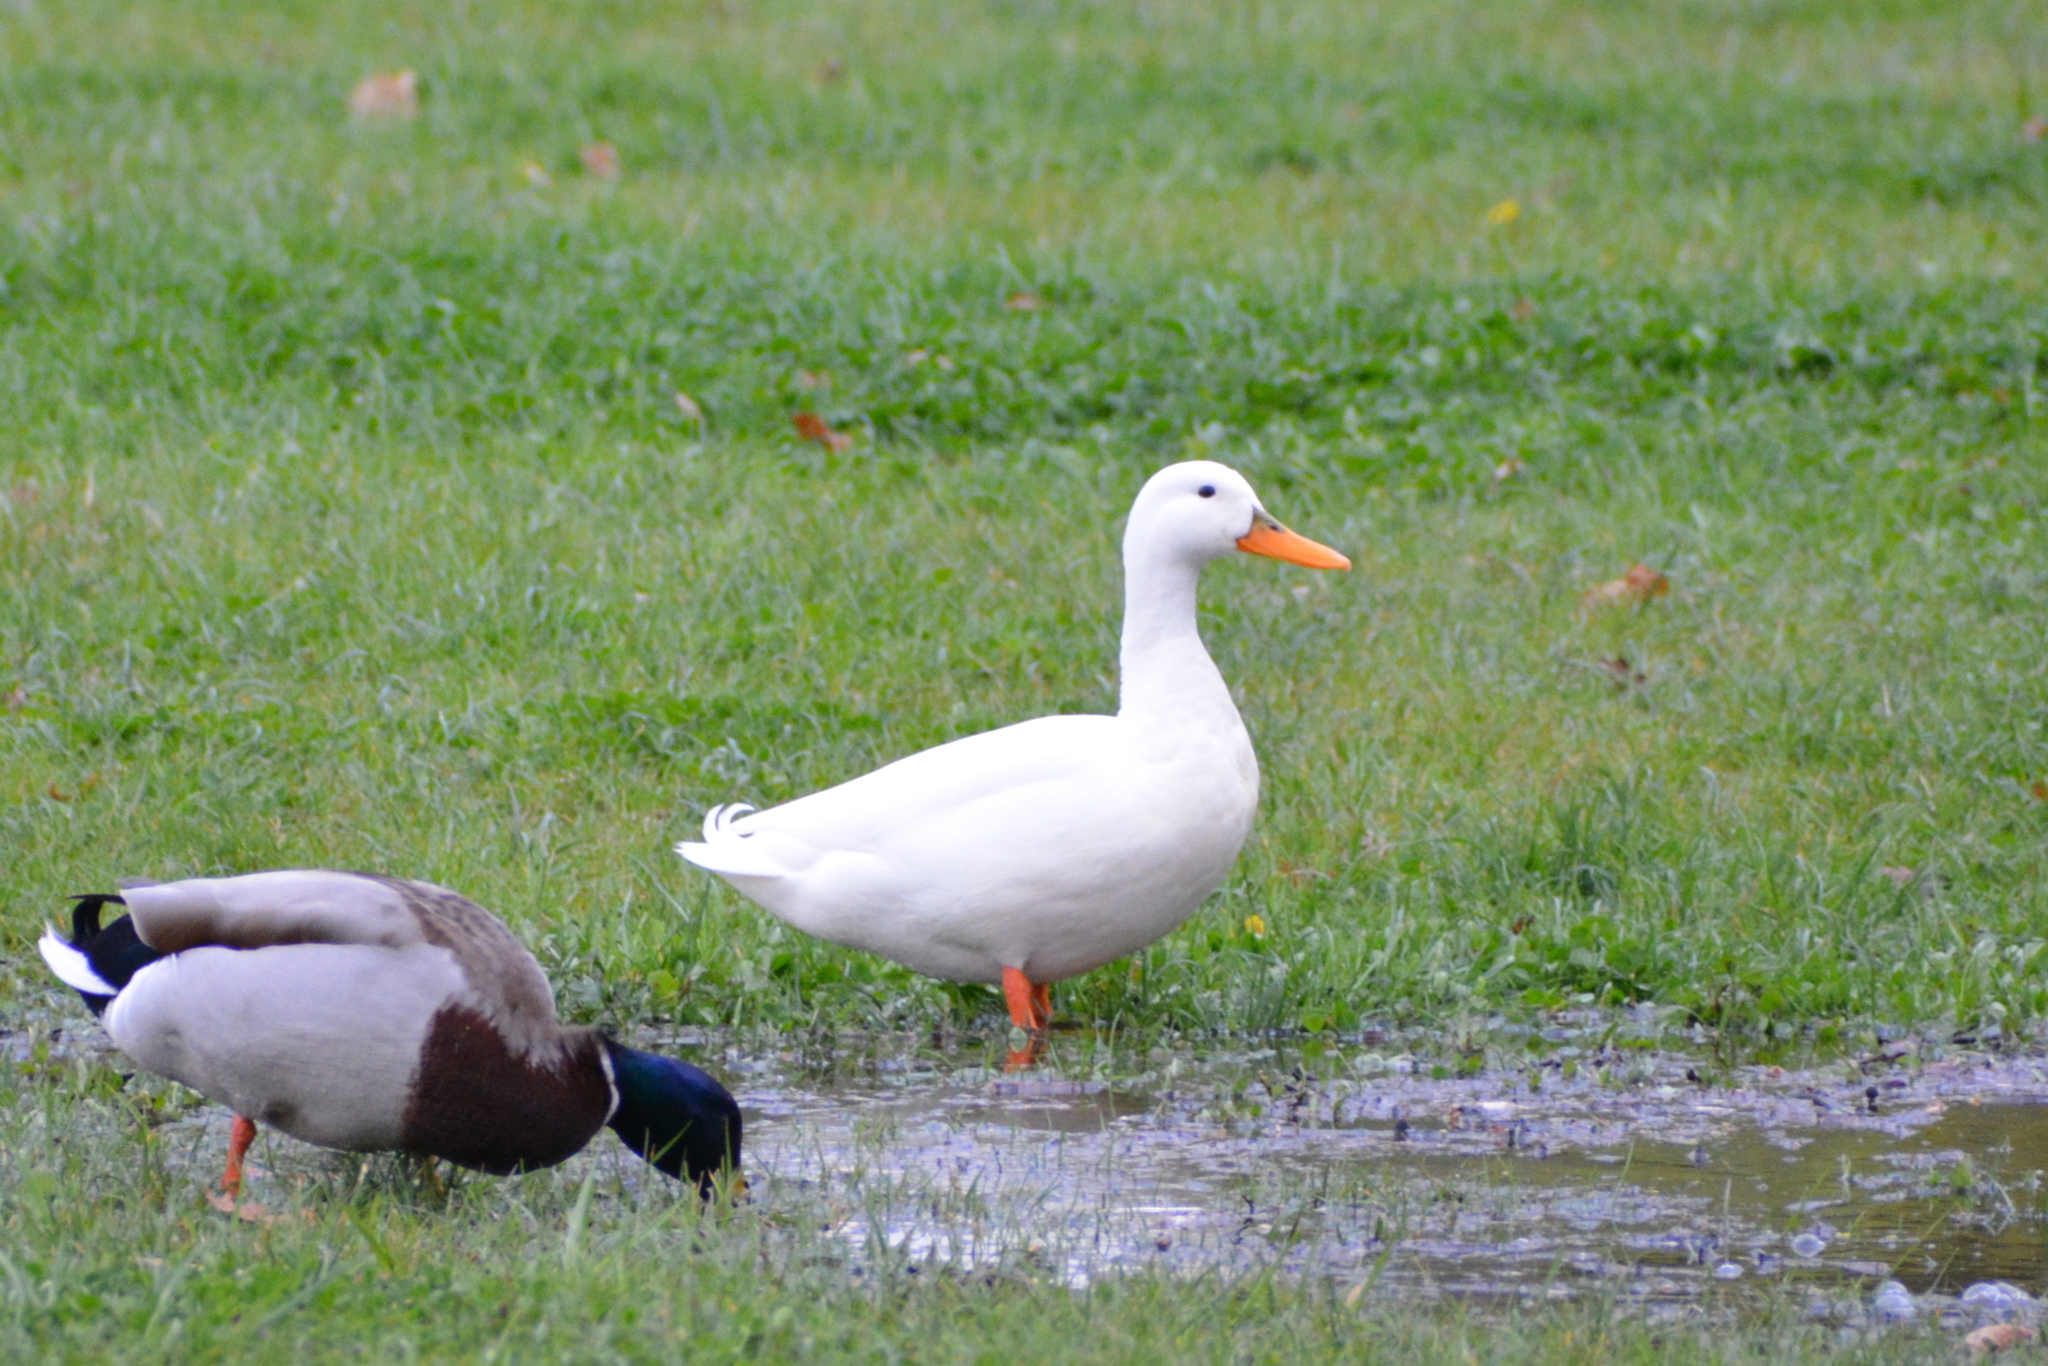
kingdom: Animalia
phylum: Chordata
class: Aves
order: Anseriformes
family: Anatidae
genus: Anas
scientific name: Anas platyrhynchos
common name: Mallard
